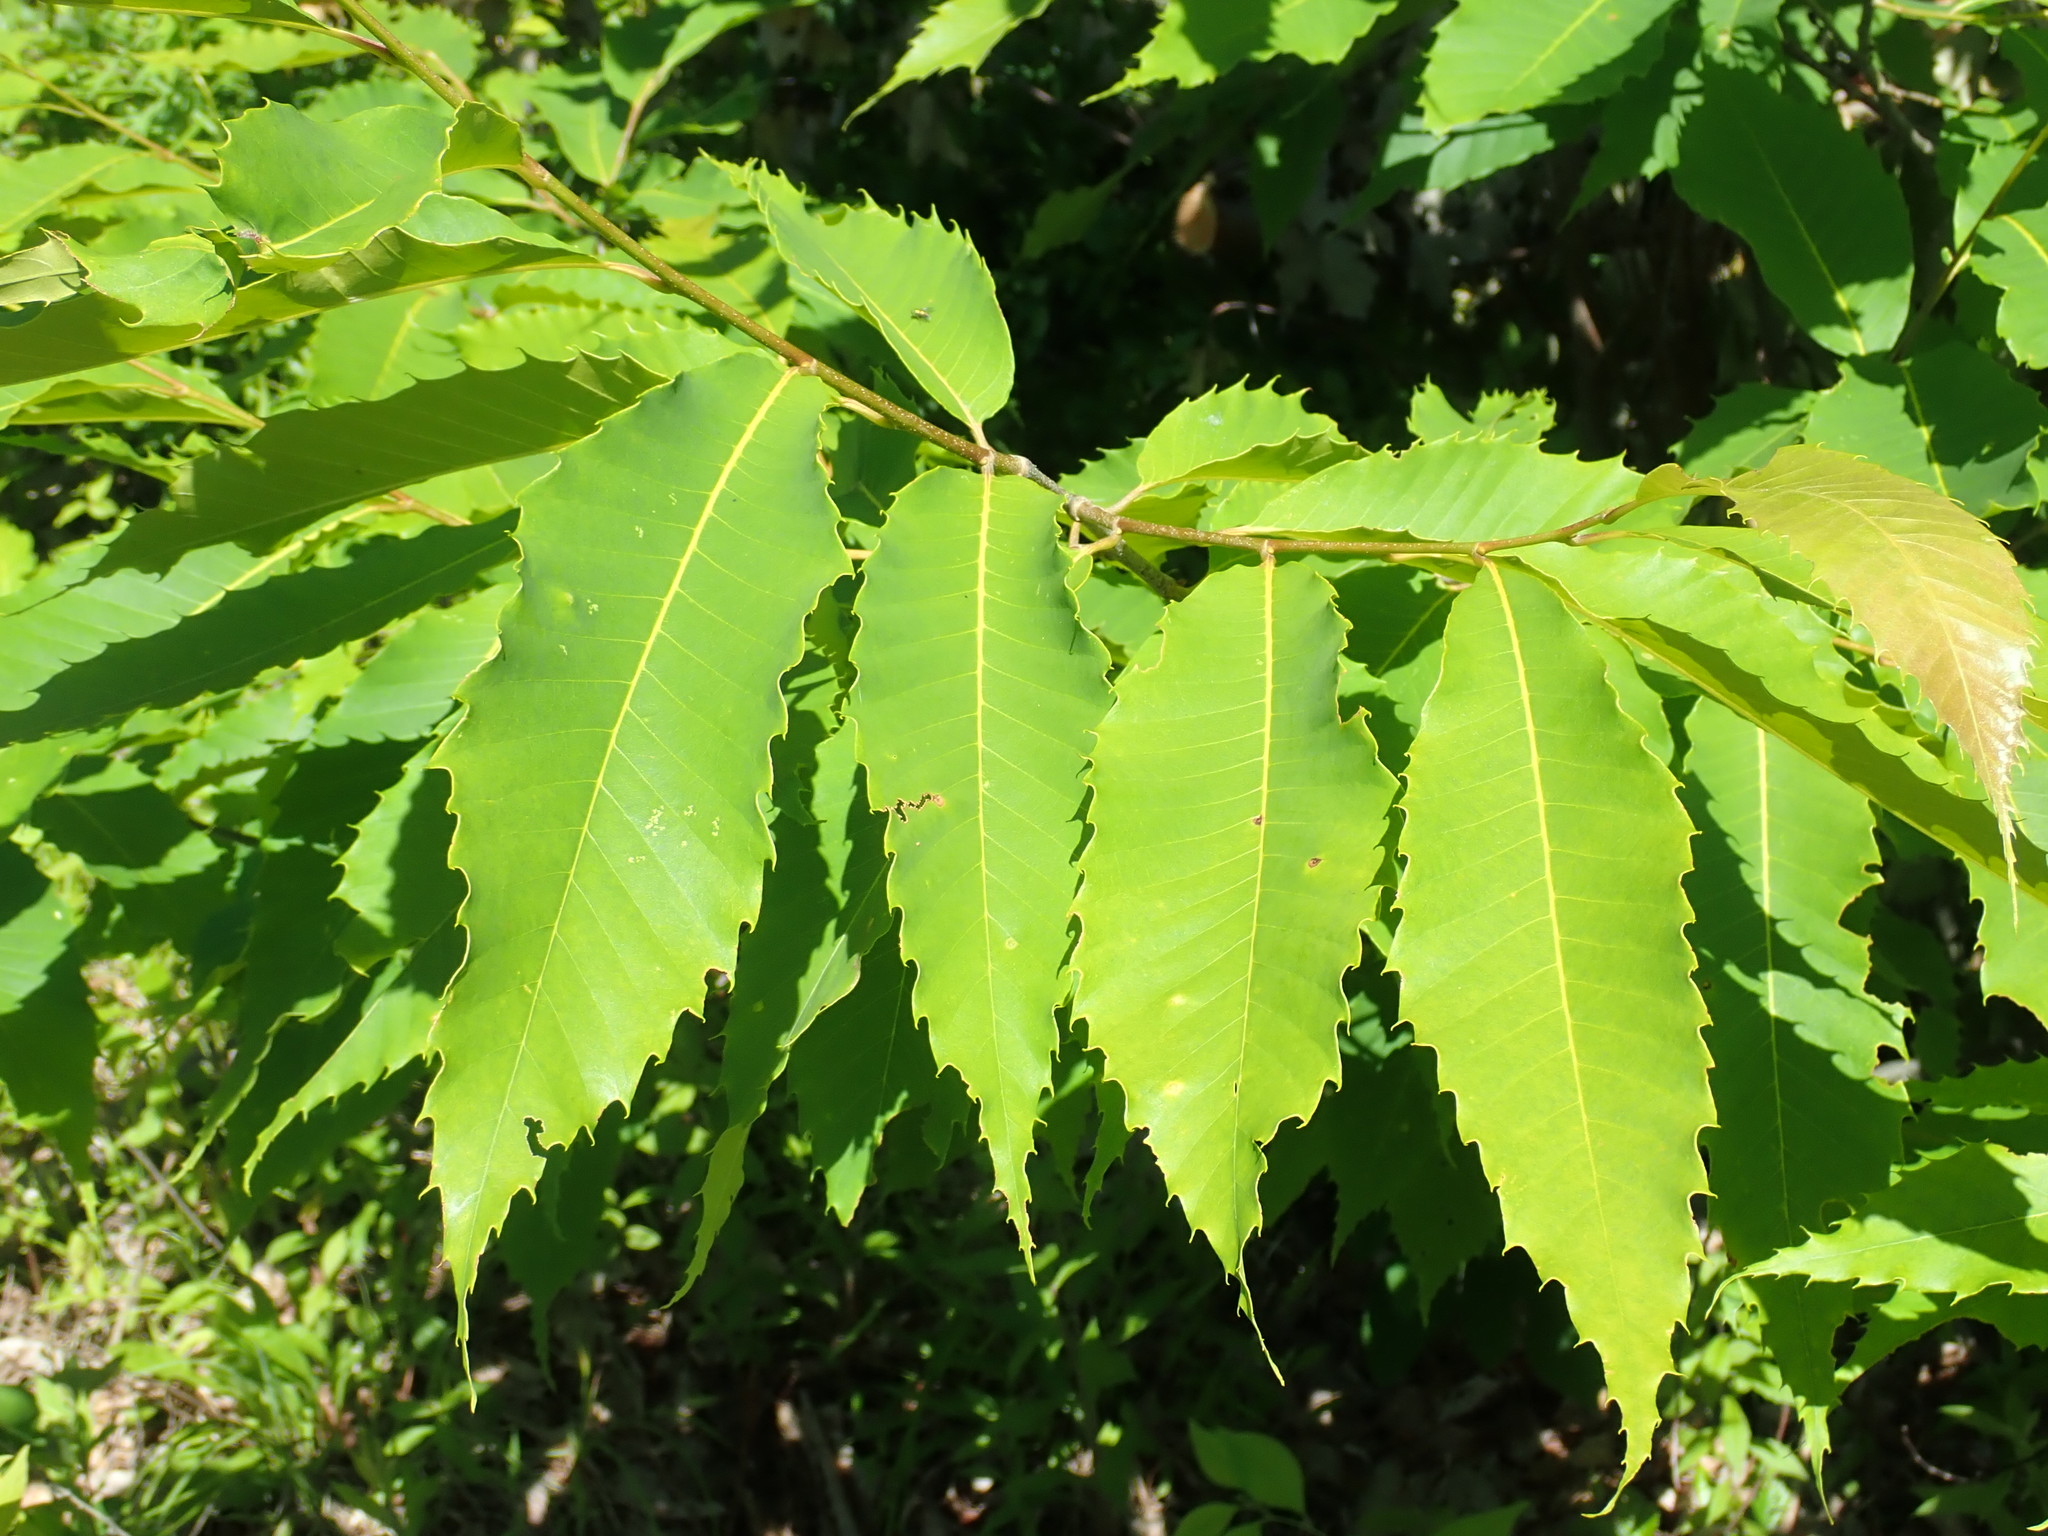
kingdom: Plantae
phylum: Tracheophyta
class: Magnoliopsida
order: Fagales
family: Fagaceae
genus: Castanea
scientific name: Castanea dentata
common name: American chestnut
